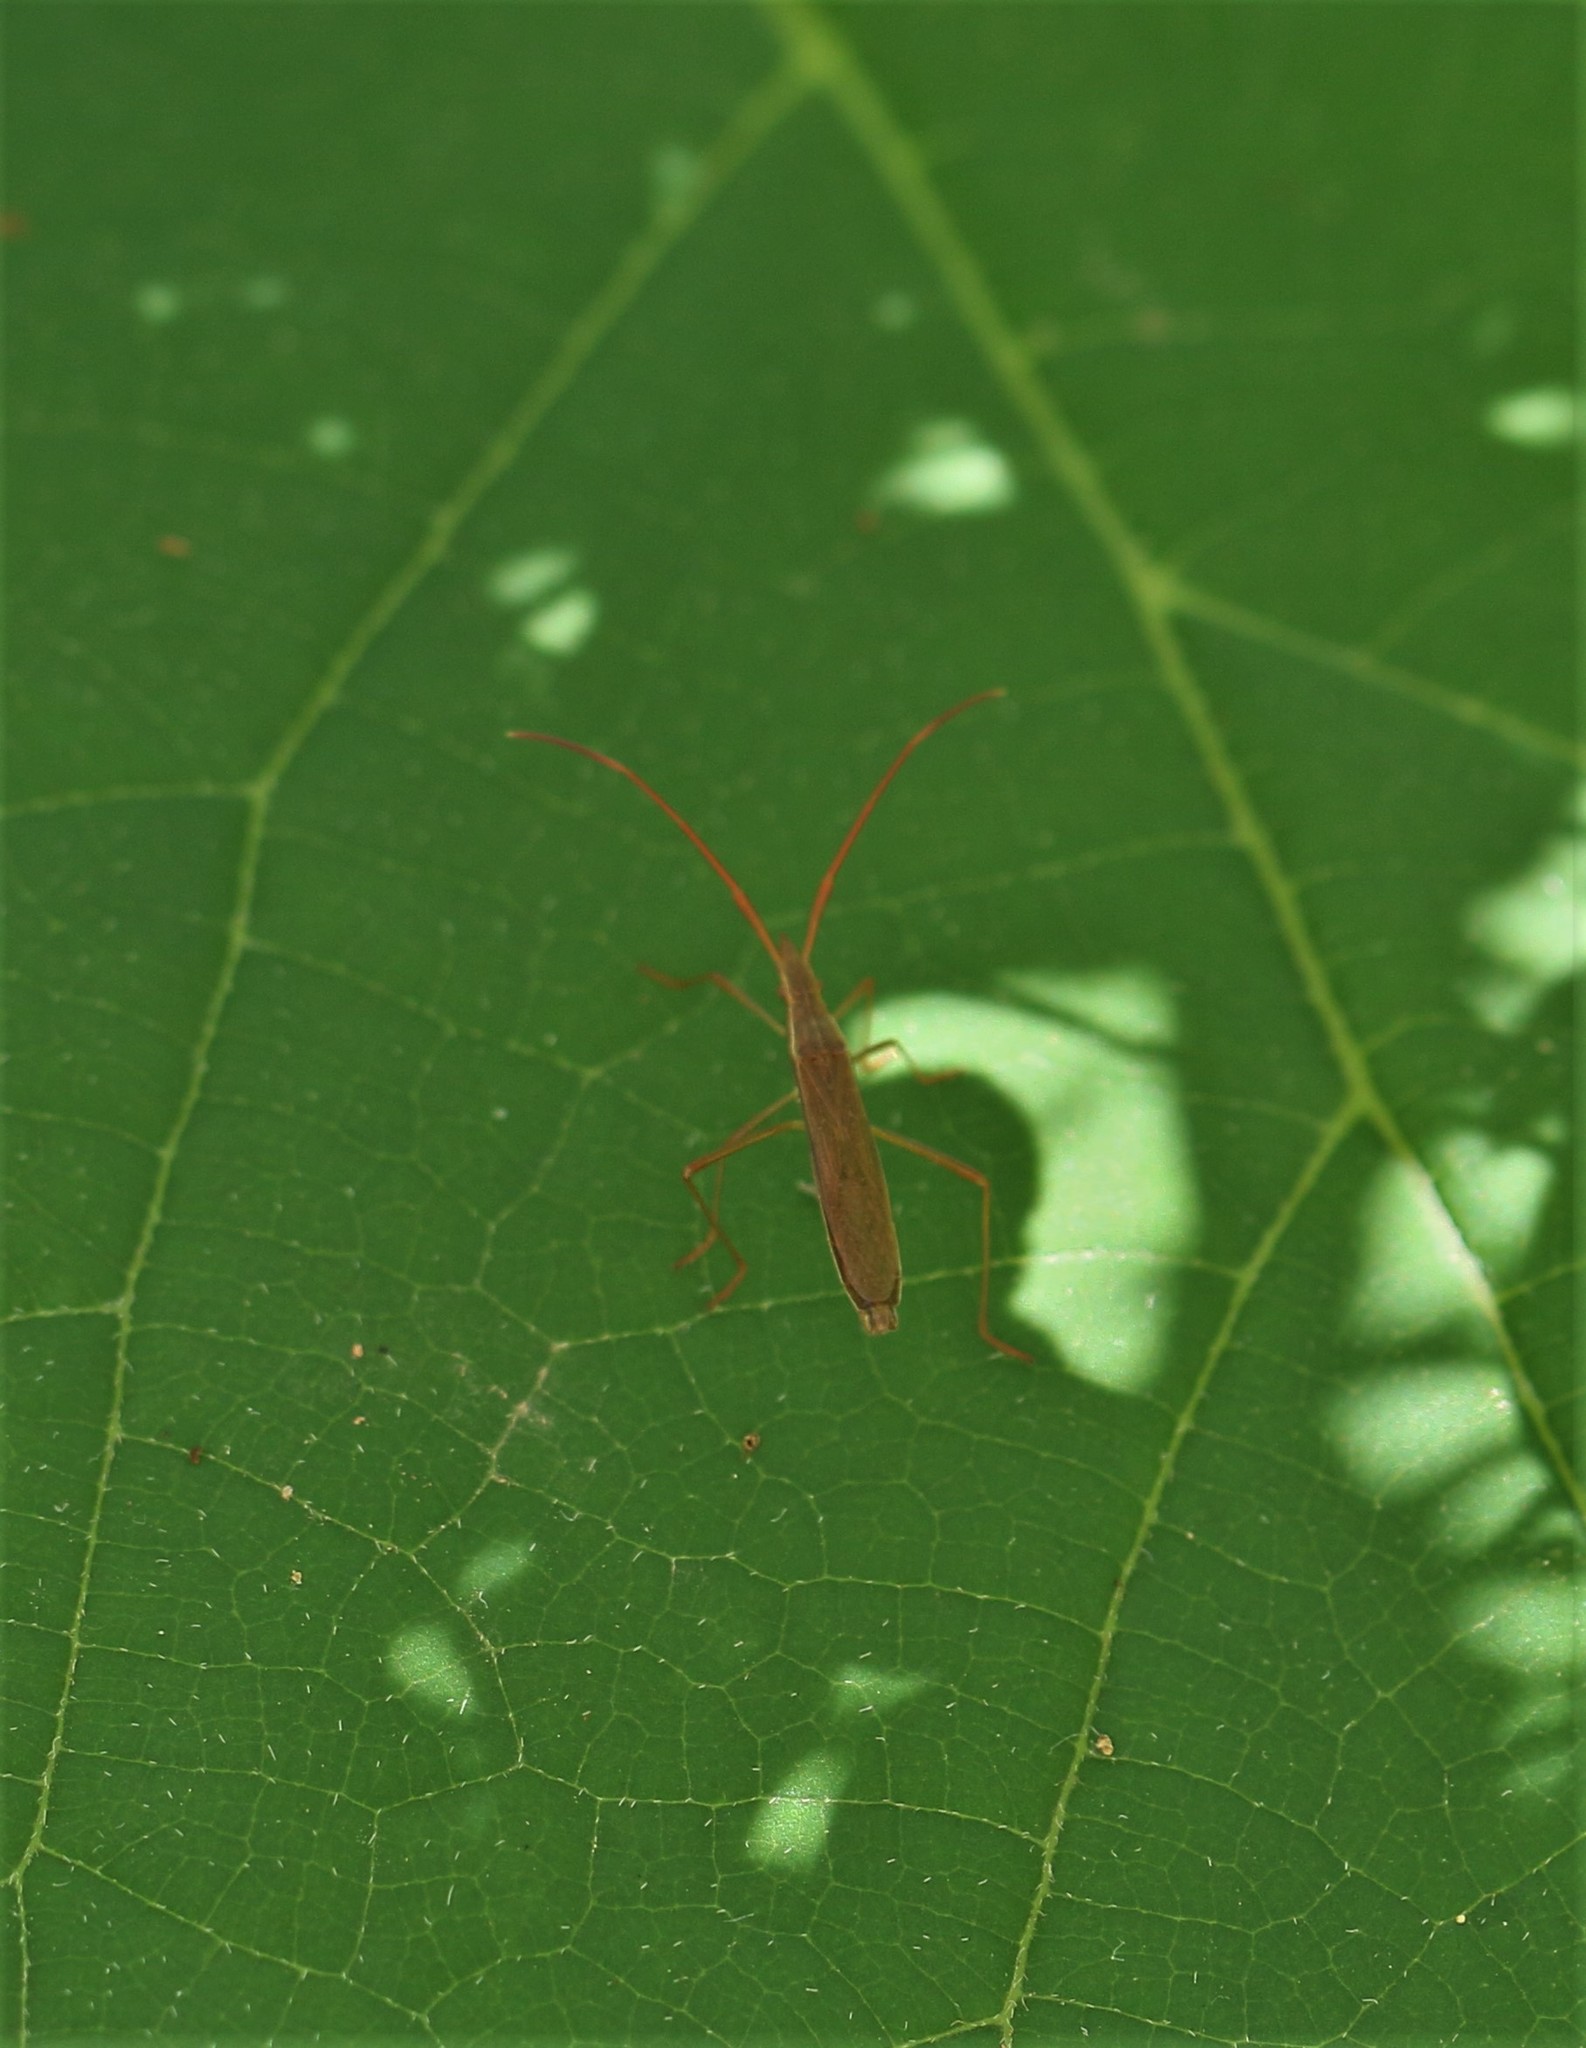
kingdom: Animalia
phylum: Arthropoda
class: Insecta
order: Hemiptera
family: Alydidae
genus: Protenor
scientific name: Protenor belfragei
